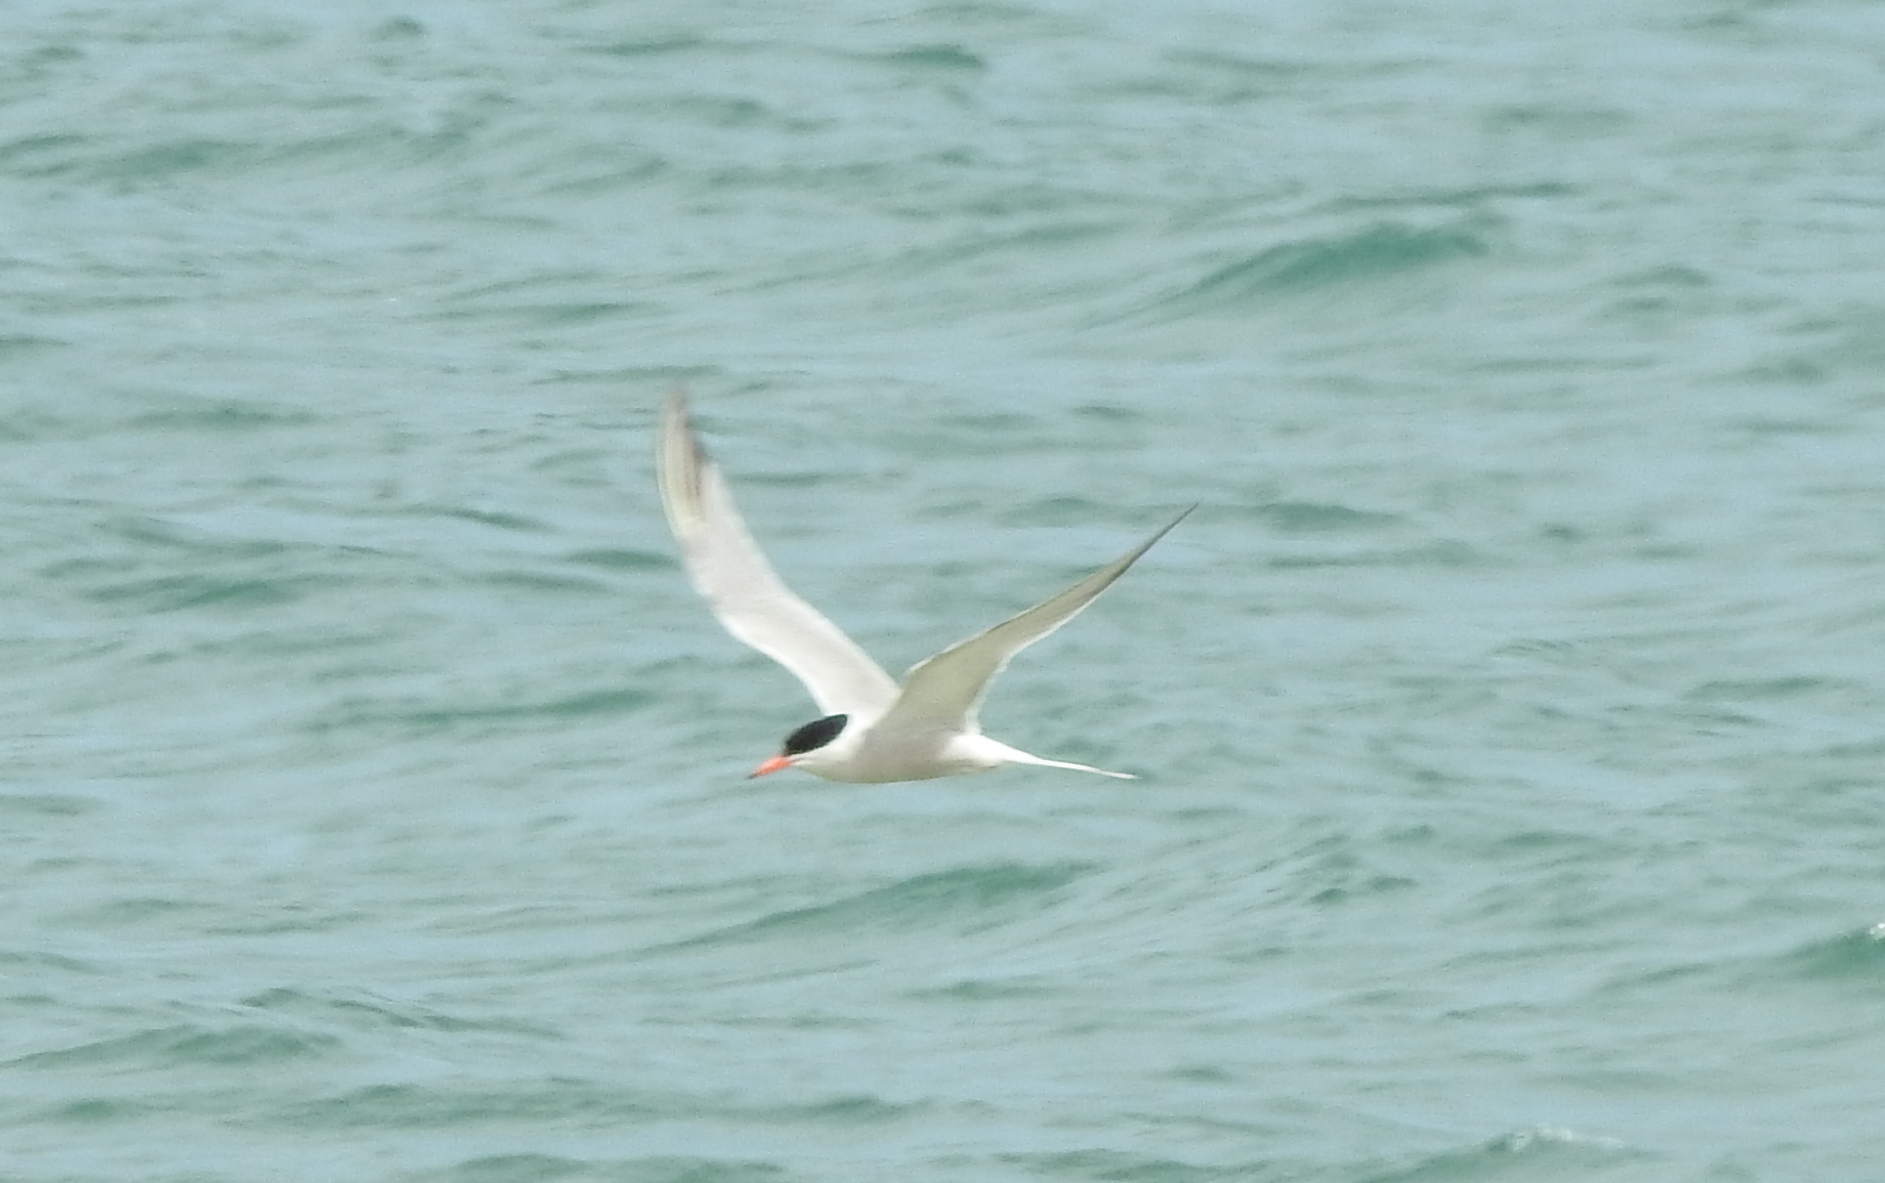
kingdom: Animalia
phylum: Chordata
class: Aves
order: Charadriiformes
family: Laridae
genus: Sterna
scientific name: Sterna hirundo
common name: Common tern
